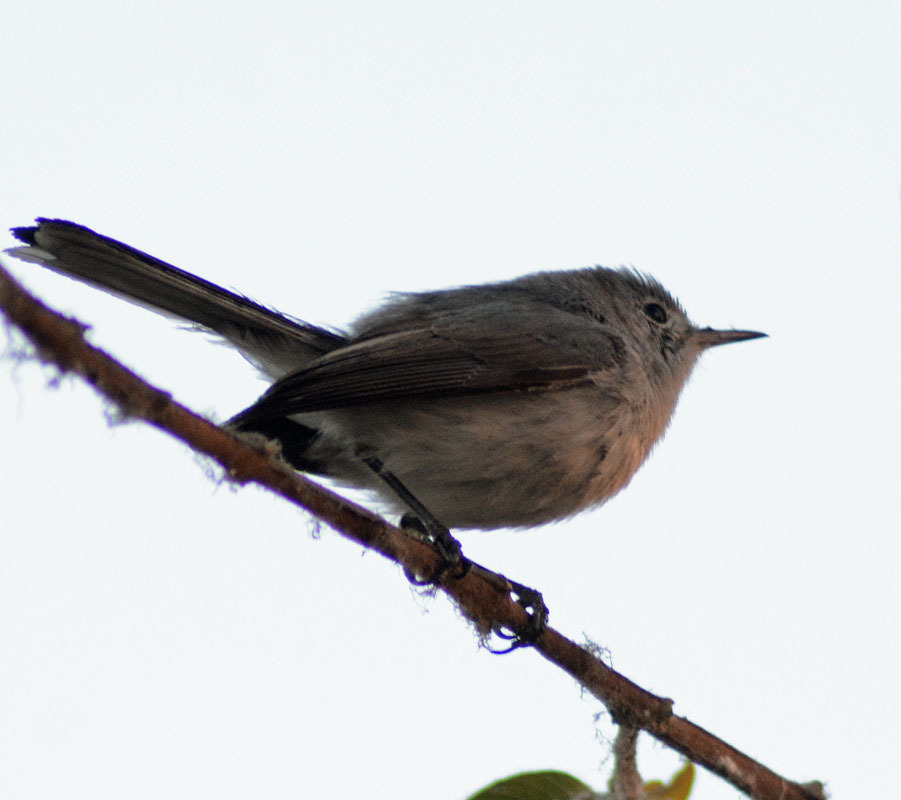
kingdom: Animalia
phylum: Chordata
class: Aves
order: Passeriformes
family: Polioptilidae
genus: Polioptila
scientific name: Polioptila caerulea
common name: Blue-gray gnatcatcher
